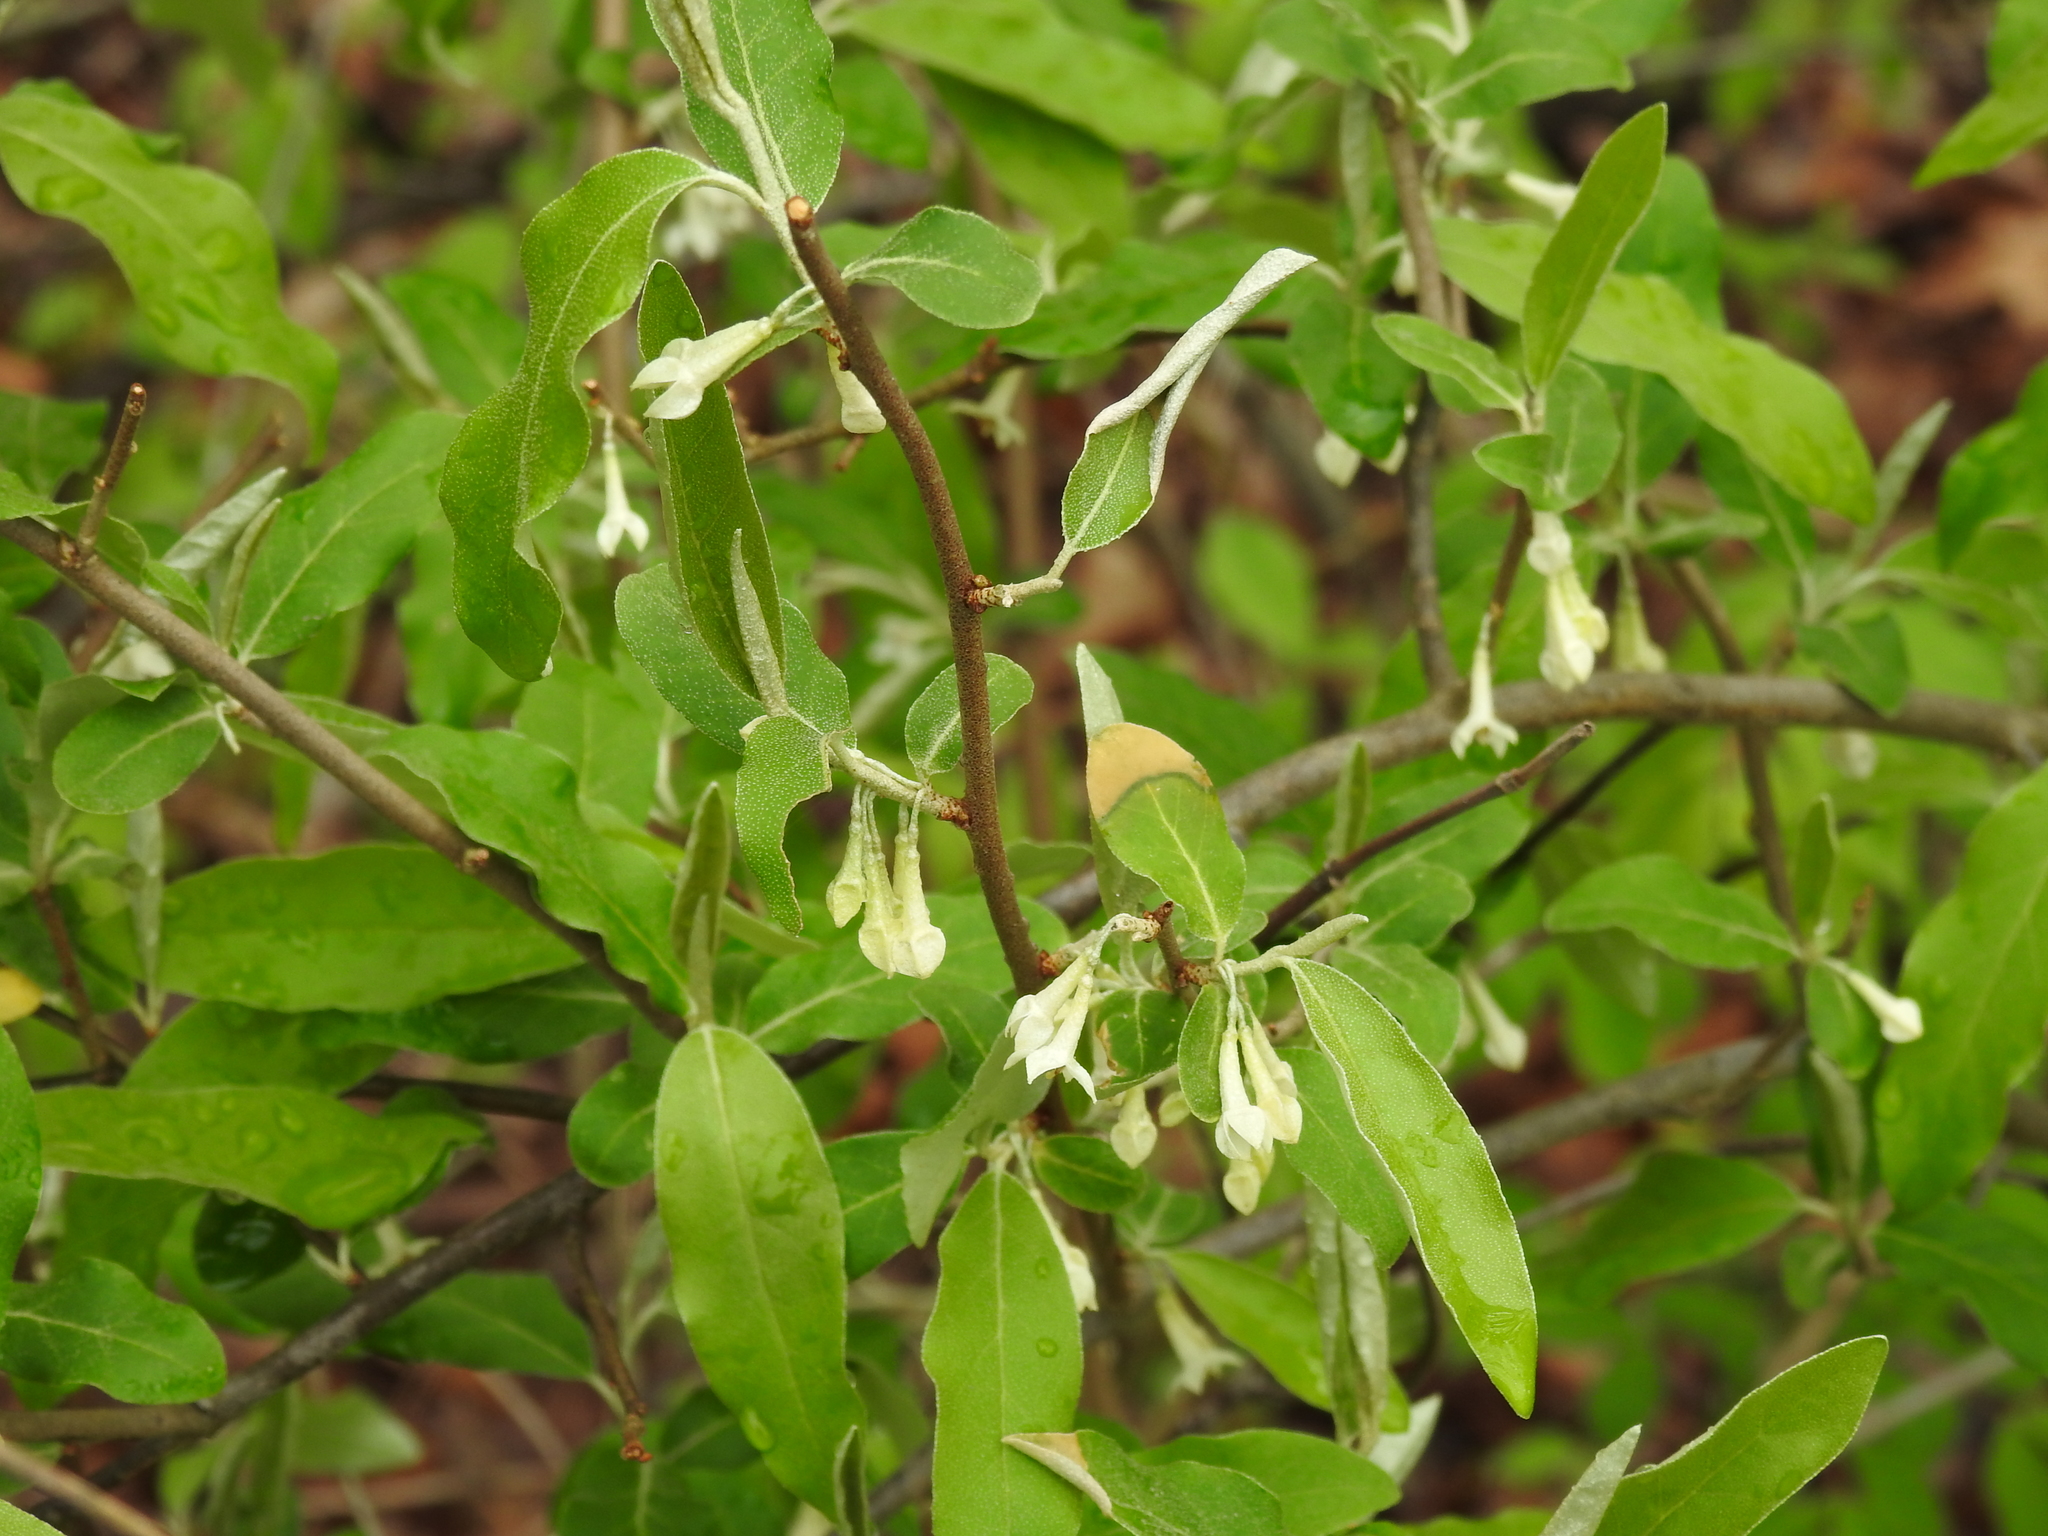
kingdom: Plantae
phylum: Tracheophyta
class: Magnoliopsida
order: Rosales
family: Elaeagnaceae
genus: Elaeagnus
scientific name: Elaeagnus umbellata
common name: Autumn olive
